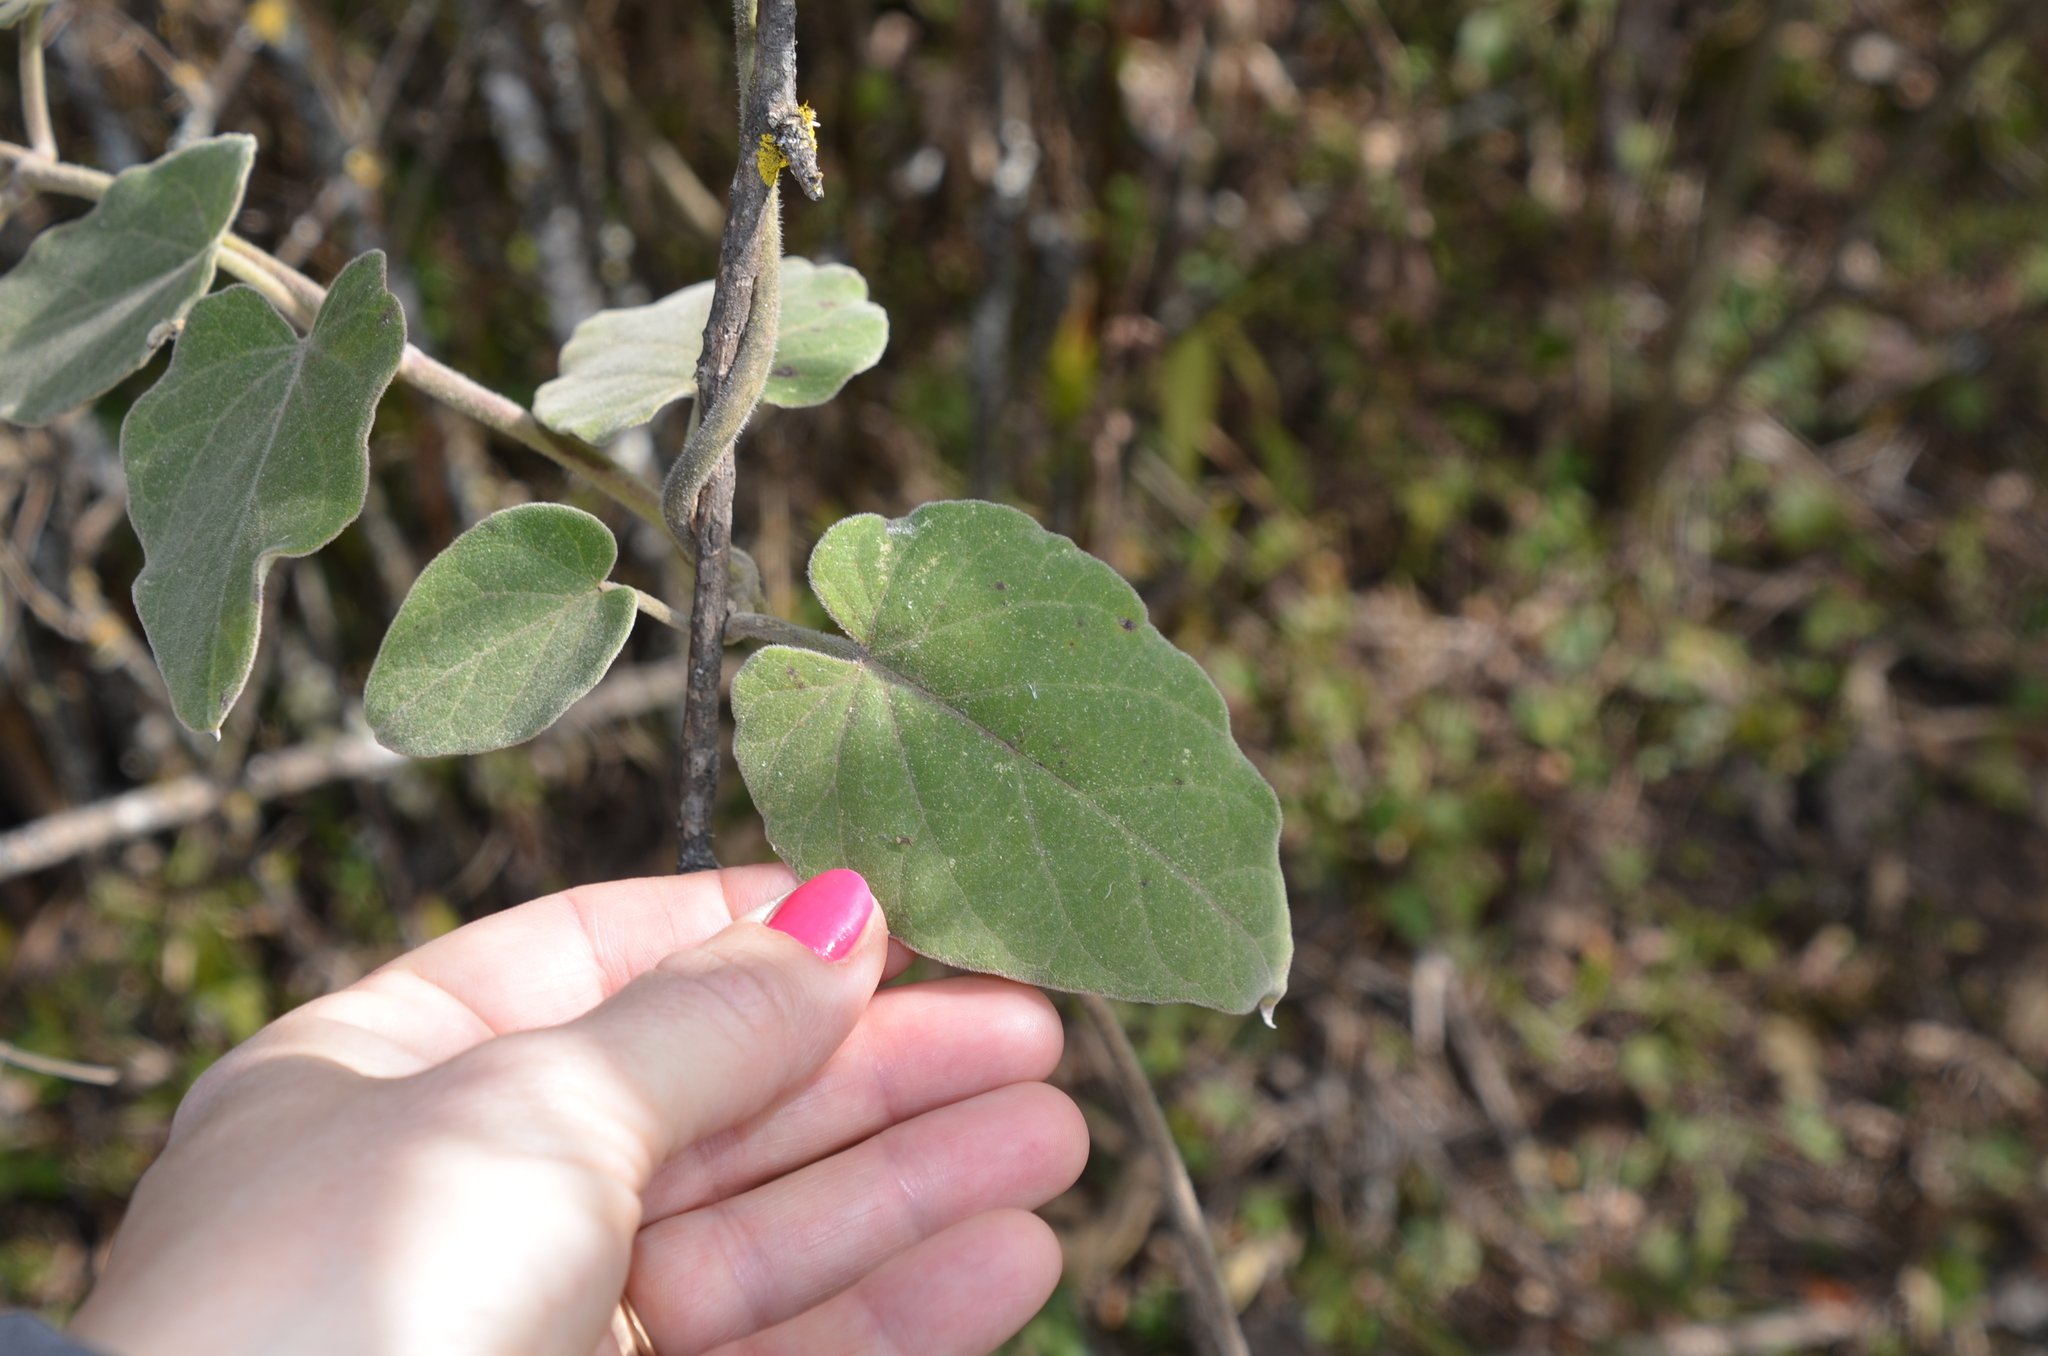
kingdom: Plantae
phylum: Tracheophyta
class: Magnoliopsida
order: Gentianales
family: Apocynaceae
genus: Philibertia
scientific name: Philibertia tomentosa
